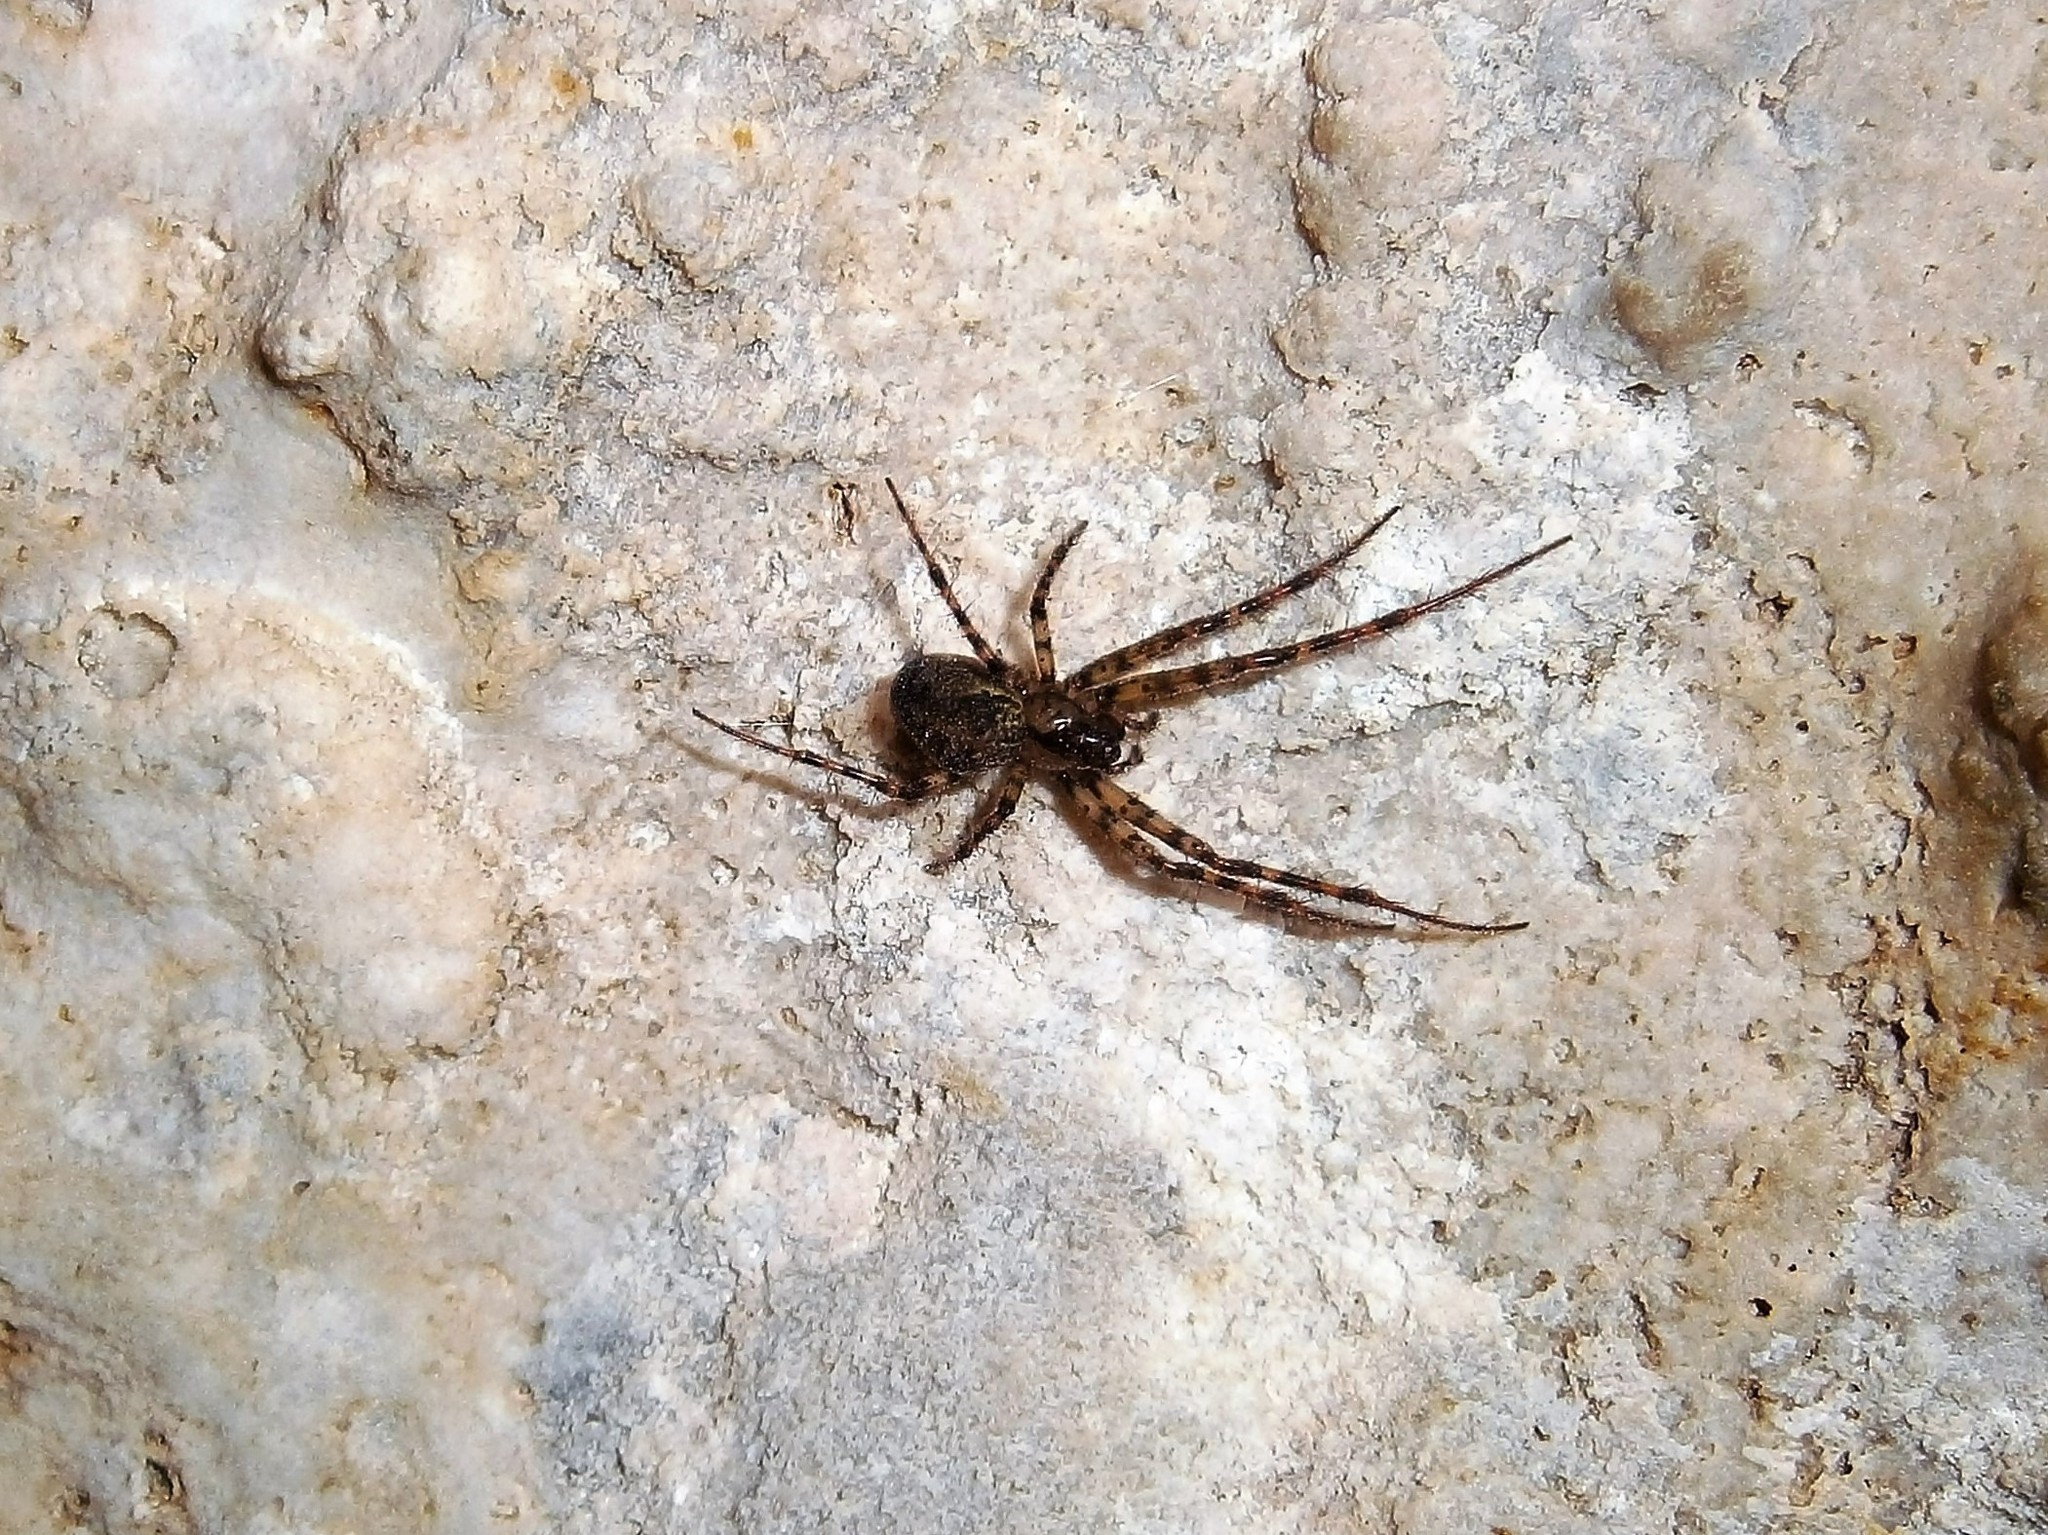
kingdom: Animalia
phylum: Arthropoda
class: Arachnida
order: Araneae
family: Tetragnathidae
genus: Metellina
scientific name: Metellina merianae
